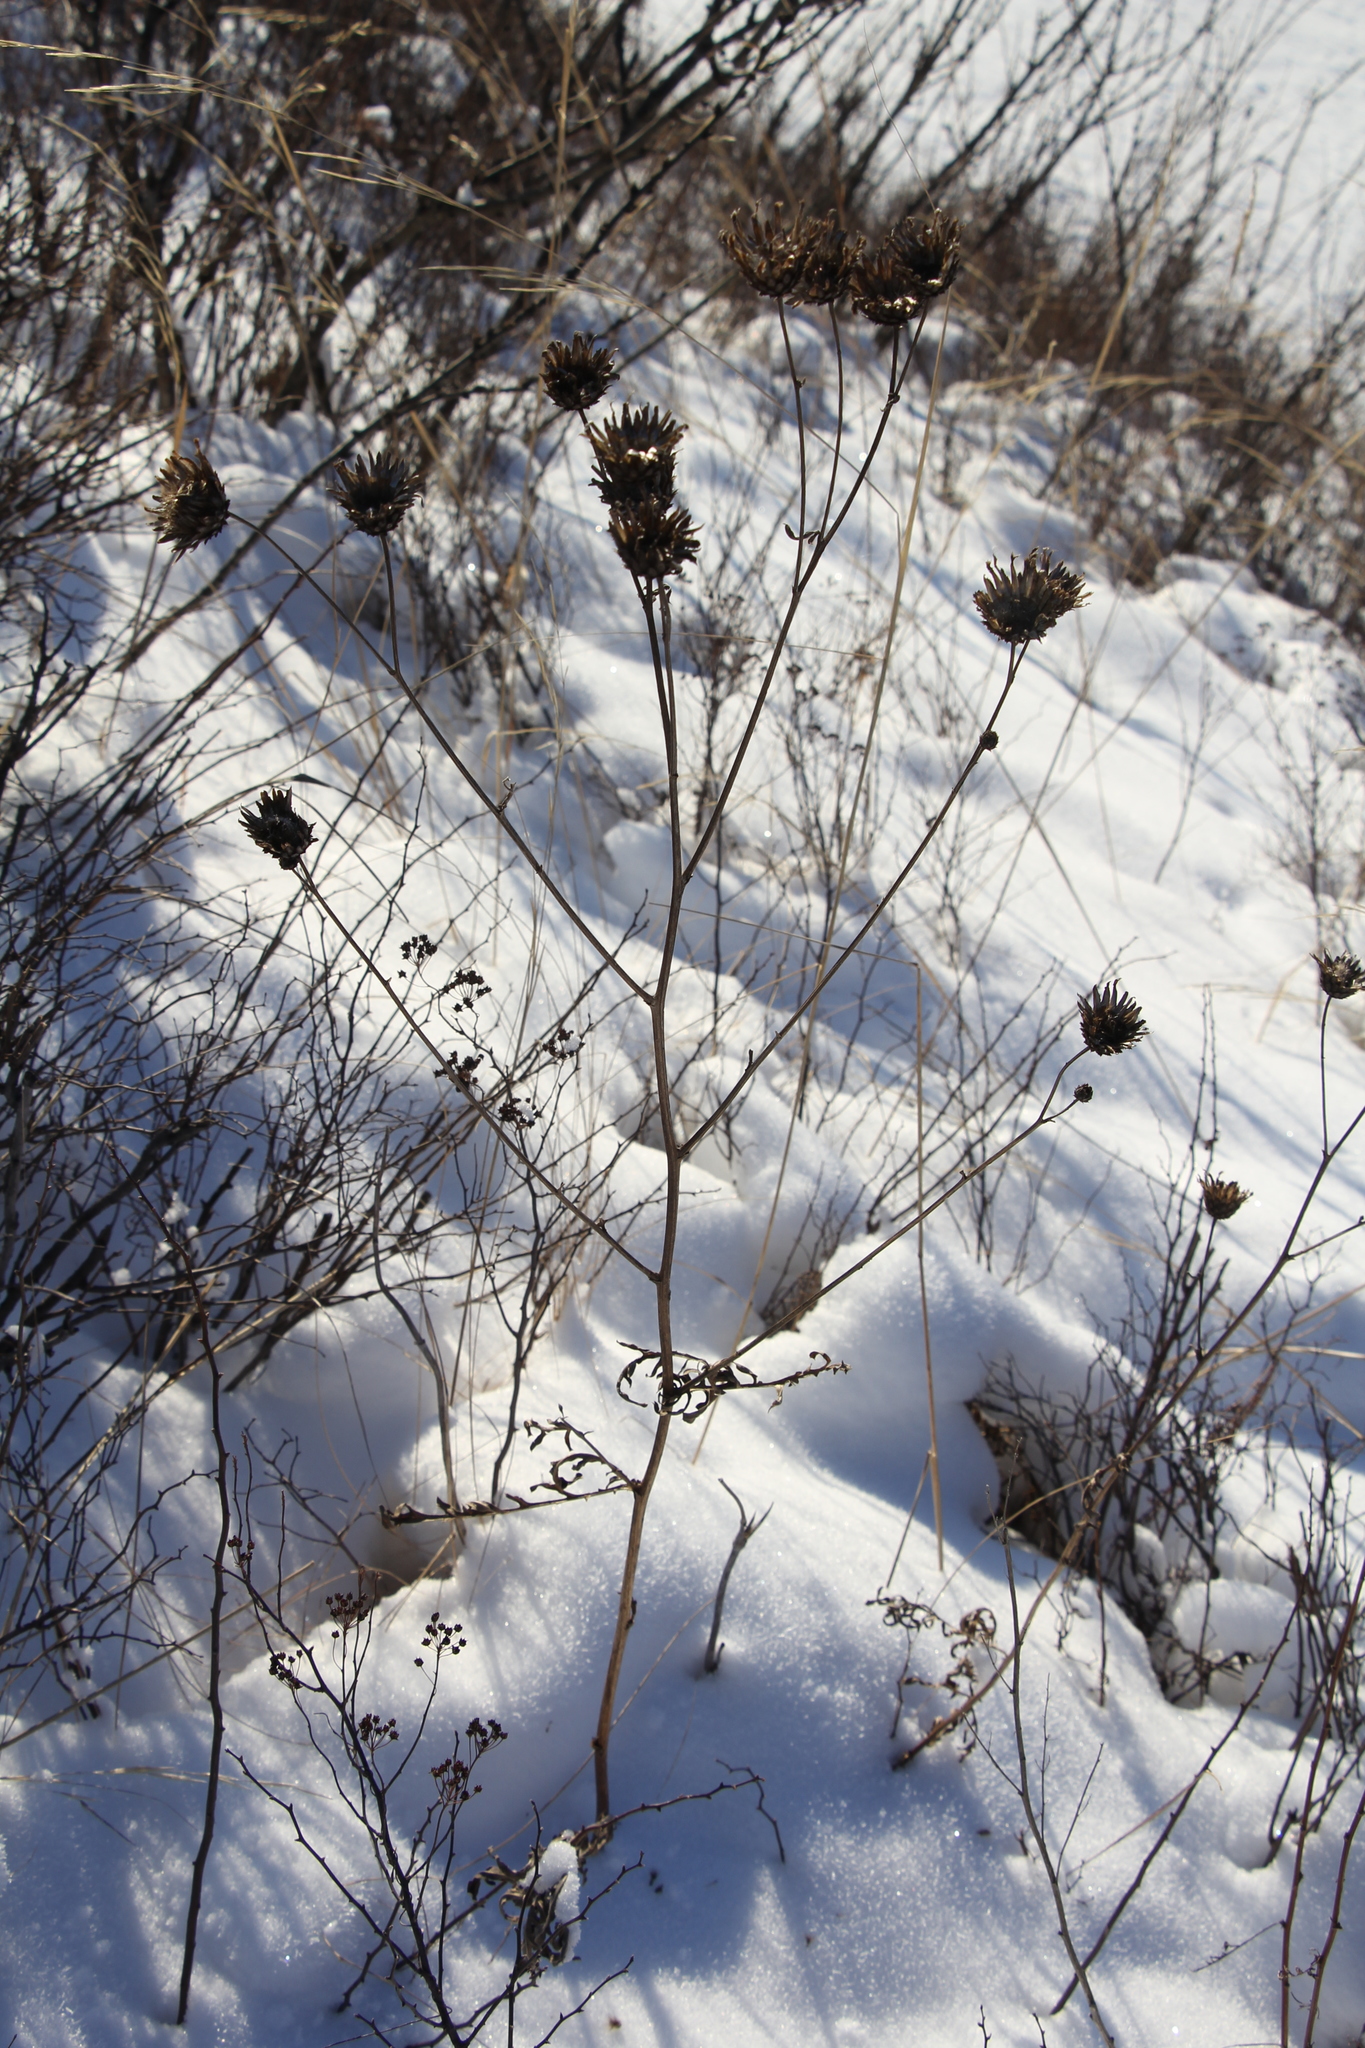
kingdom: Plantae
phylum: Tracheophyta
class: Magnoliopsida
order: Asterales
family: Asteraceae
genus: Centaurea
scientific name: Centaurea scabiosa
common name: Greater knapweed
